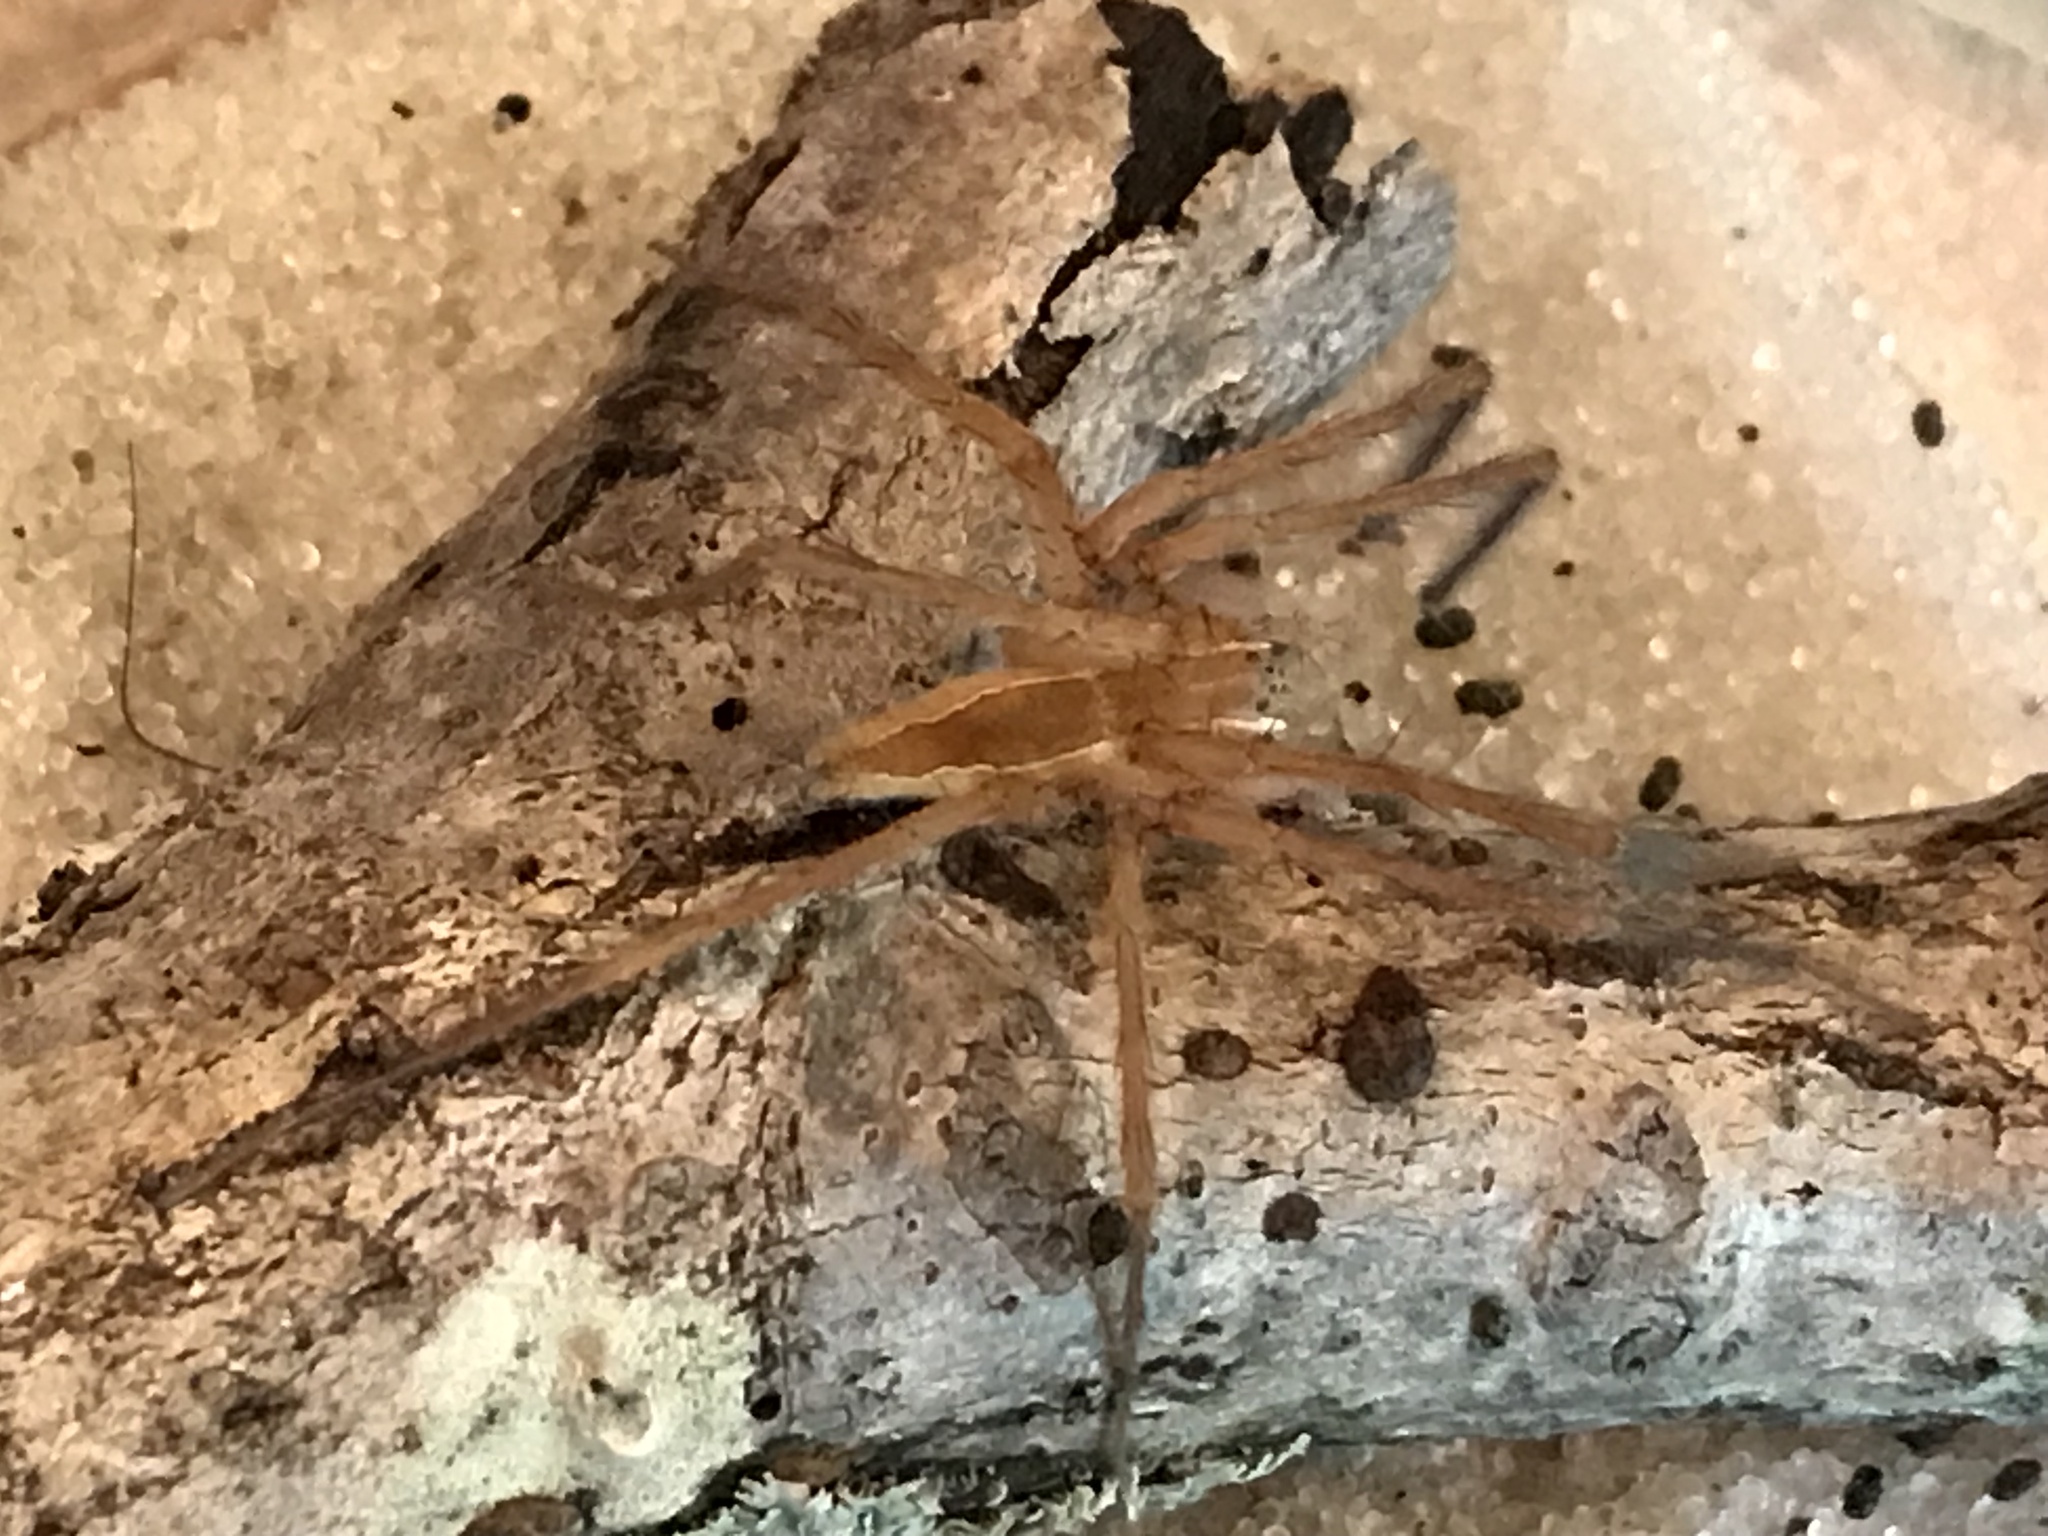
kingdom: Animalia
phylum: Arthropoda
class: Arachnida
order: Araneae
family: Pisauridae
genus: Pisaurina
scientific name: Pisaurina mira
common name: American nursery web spider
